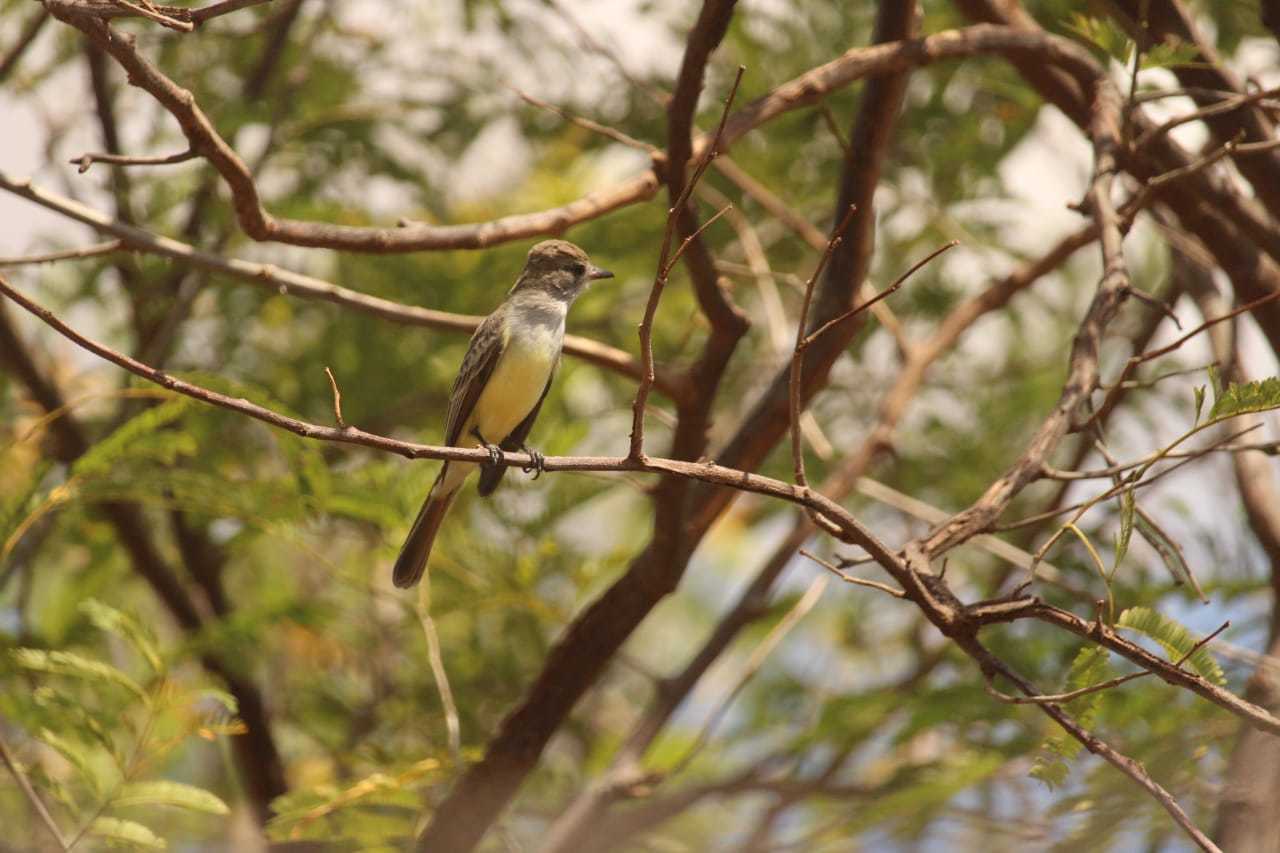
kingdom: Animalia
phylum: Chordata
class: Aves
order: Passeriformes
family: Tyrannidae
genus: Myiarchus
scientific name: Myiarchus tyrannulus
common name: Brown-crested flycatcher
